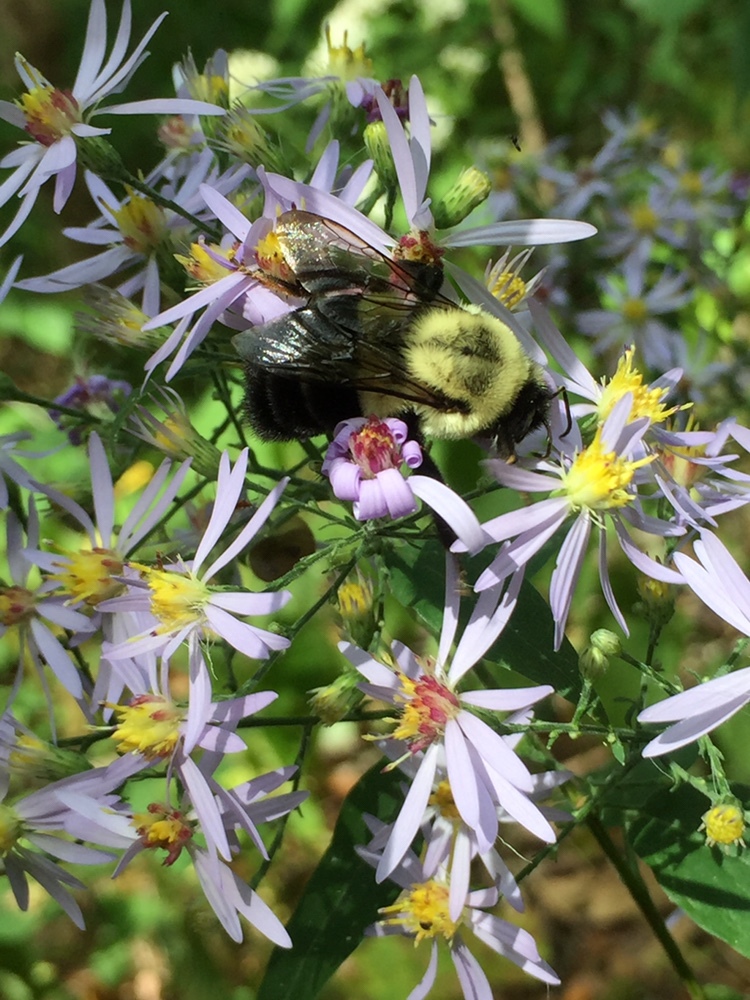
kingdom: Animalia
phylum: Arthropoda
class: Insecta
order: Hymenoptera
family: Apidae
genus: Bombus
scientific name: Bombus impatiens
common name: Common eastern bumble bee
